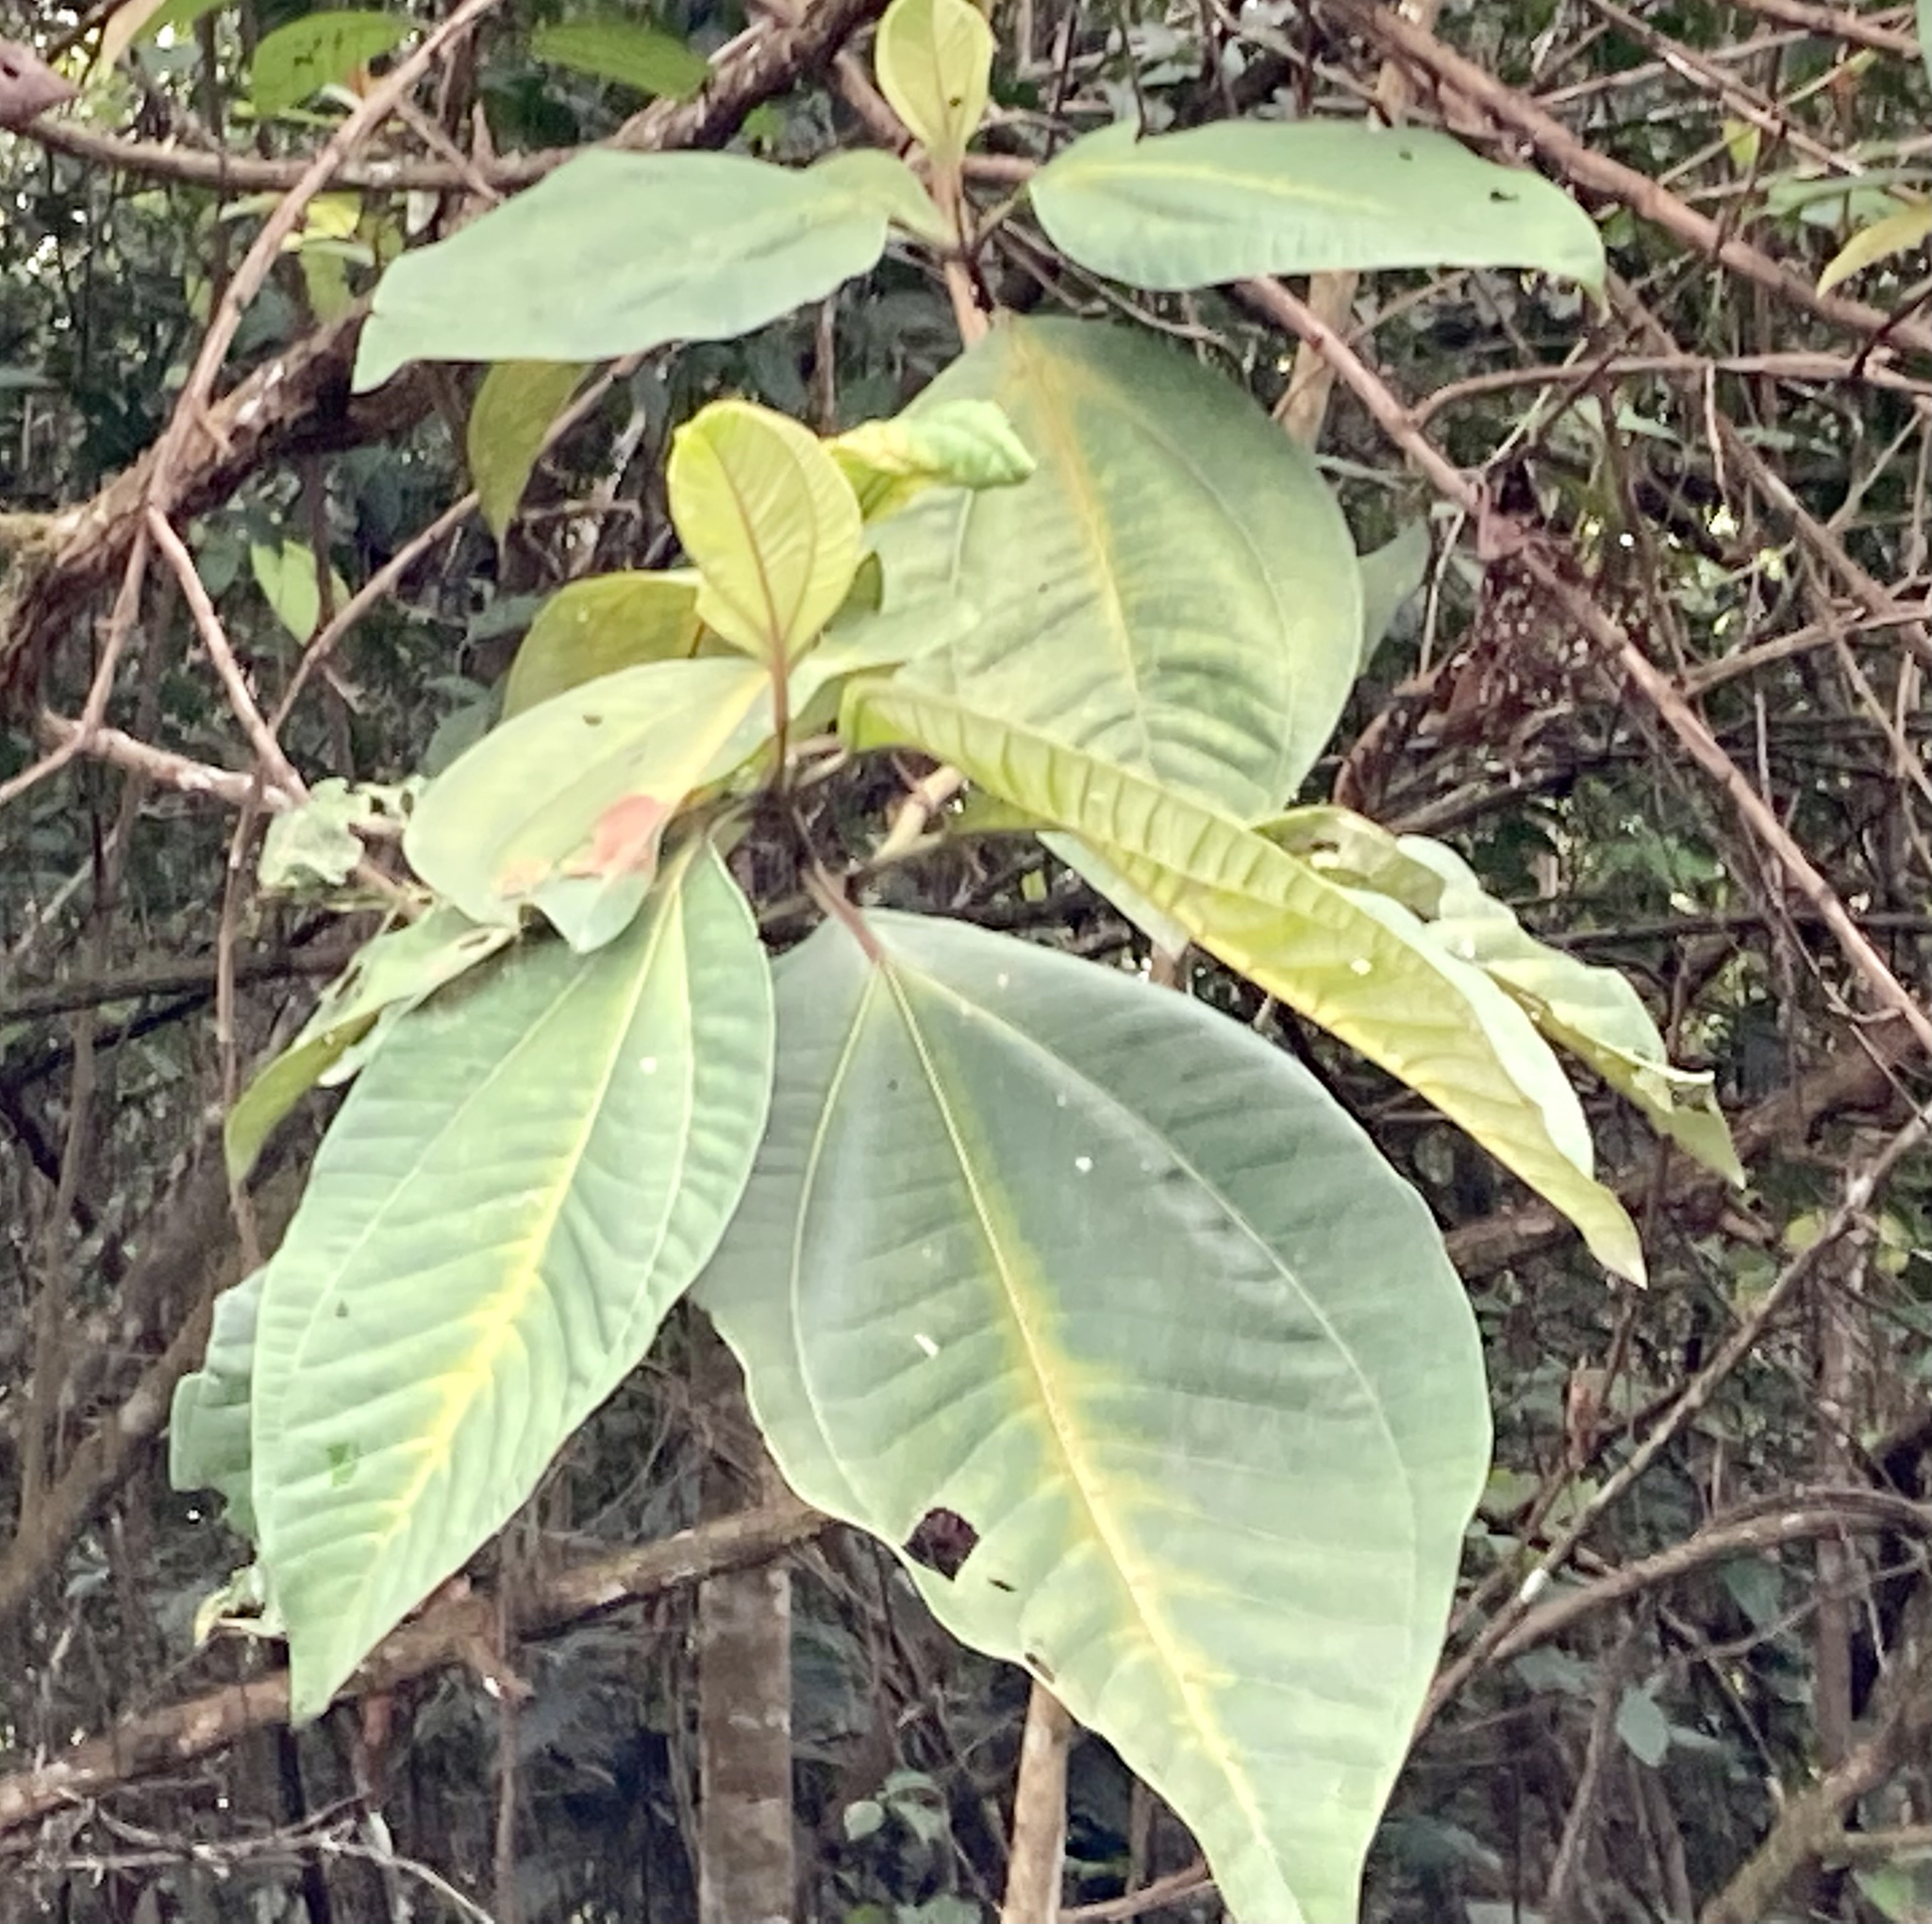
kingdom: Plantae
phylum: Tracheophyta
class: Magnoliopsida
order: Myrtales
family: Melastomataceae
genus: Bellucia
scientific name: Bellucia pentamera
